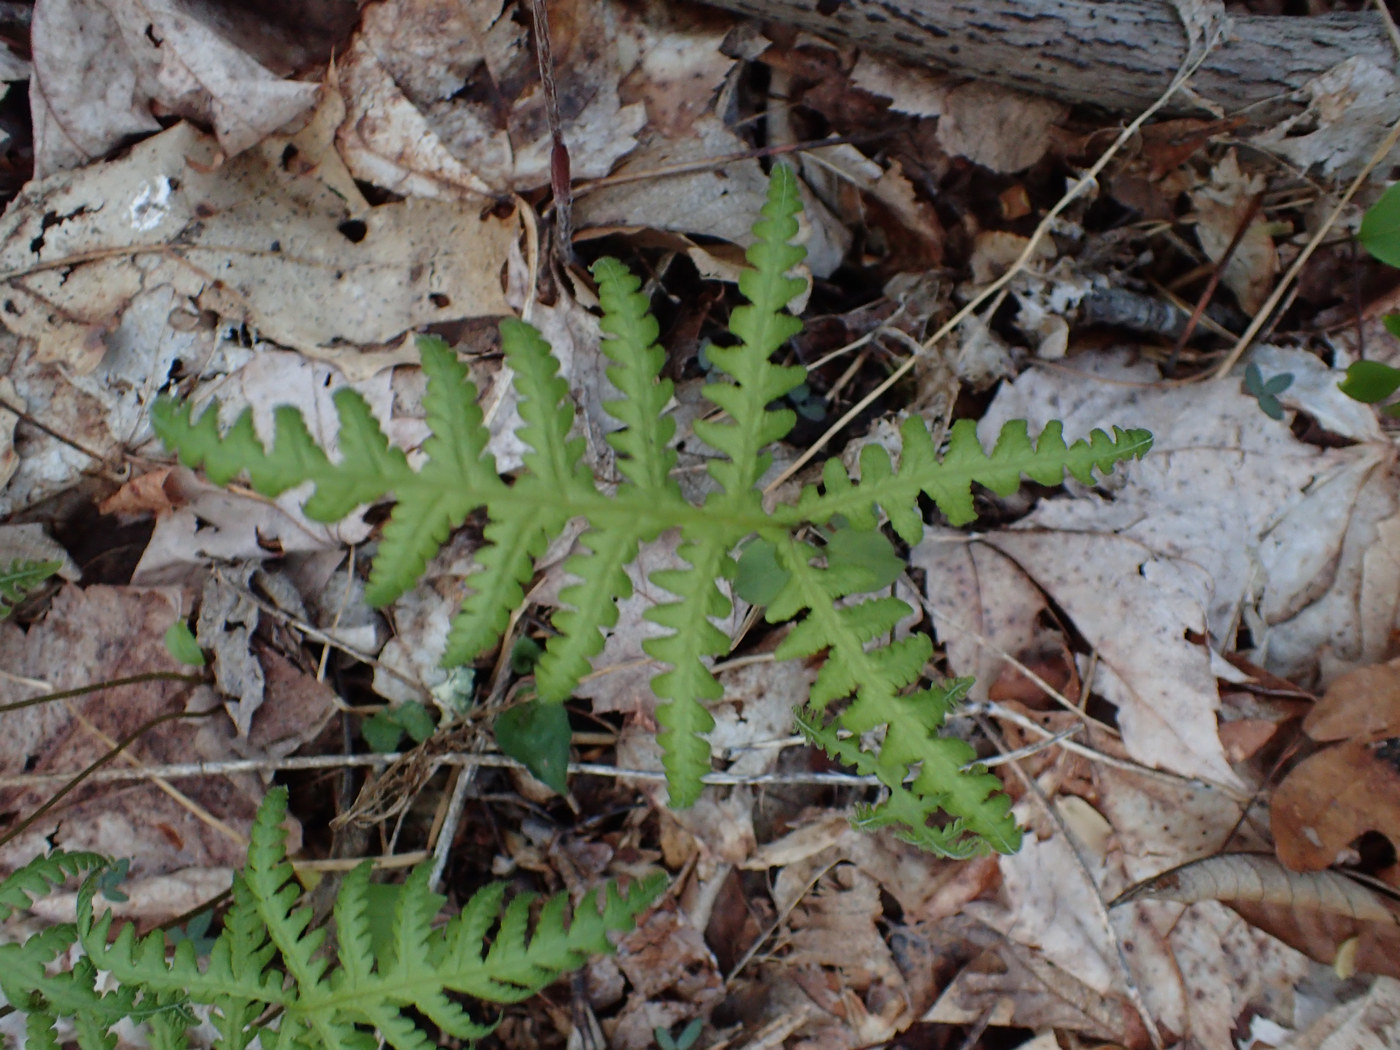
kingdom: Plantae
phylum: Tracheophyta
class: Polypodiopsida
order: Polypodiales
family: Thelypteridaceae
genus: Phegopteris
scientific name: Phegopteris hexagonoptera
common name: Broad beech fern
